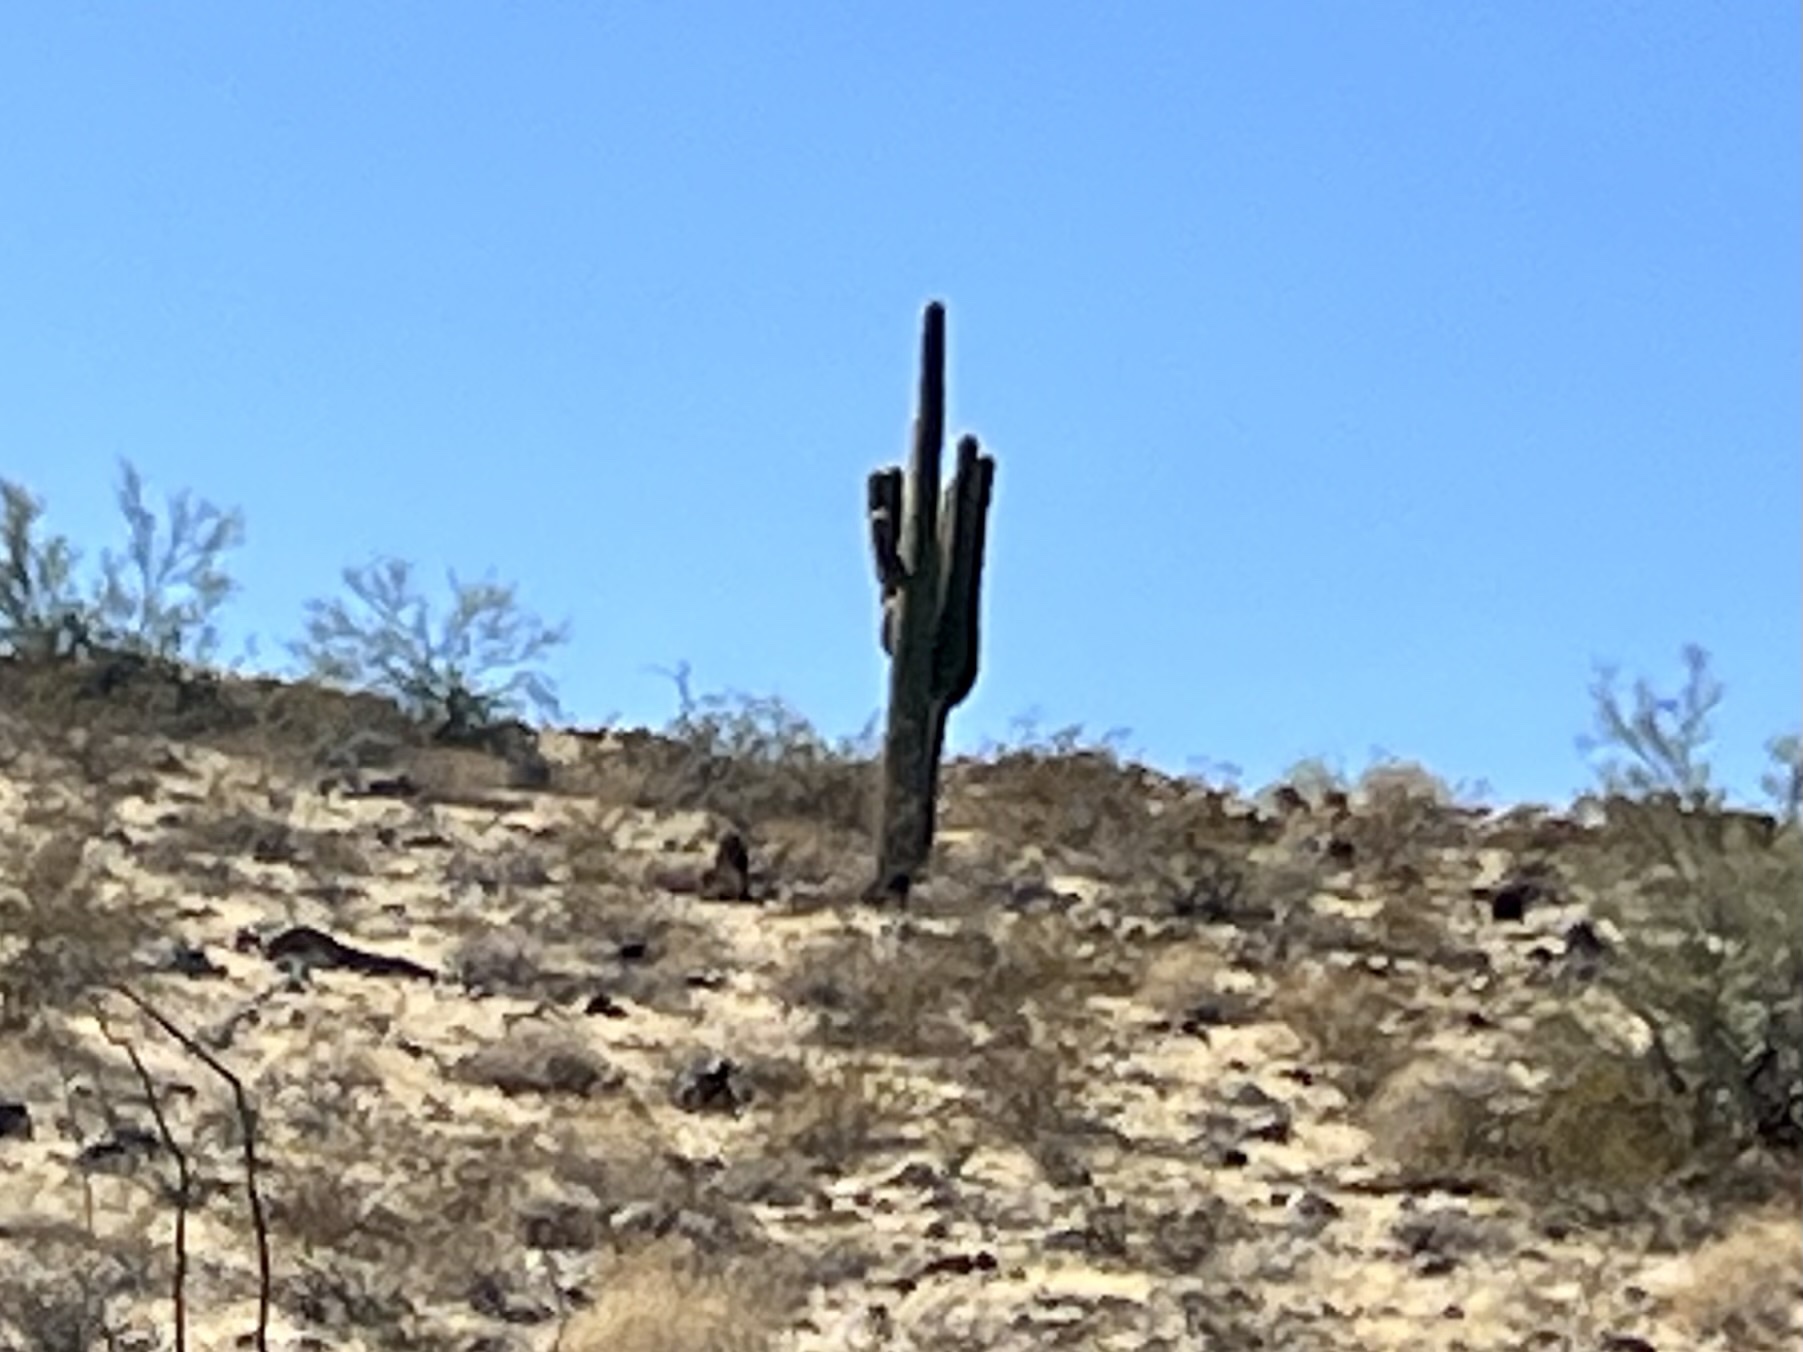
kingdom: Plantae
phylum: Tracheophyta
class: Magnoliopsida
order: Caryophyllales
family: Cactaceae
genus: Carnegiea
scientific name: Carnegiea gigantea
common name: Saguaro
